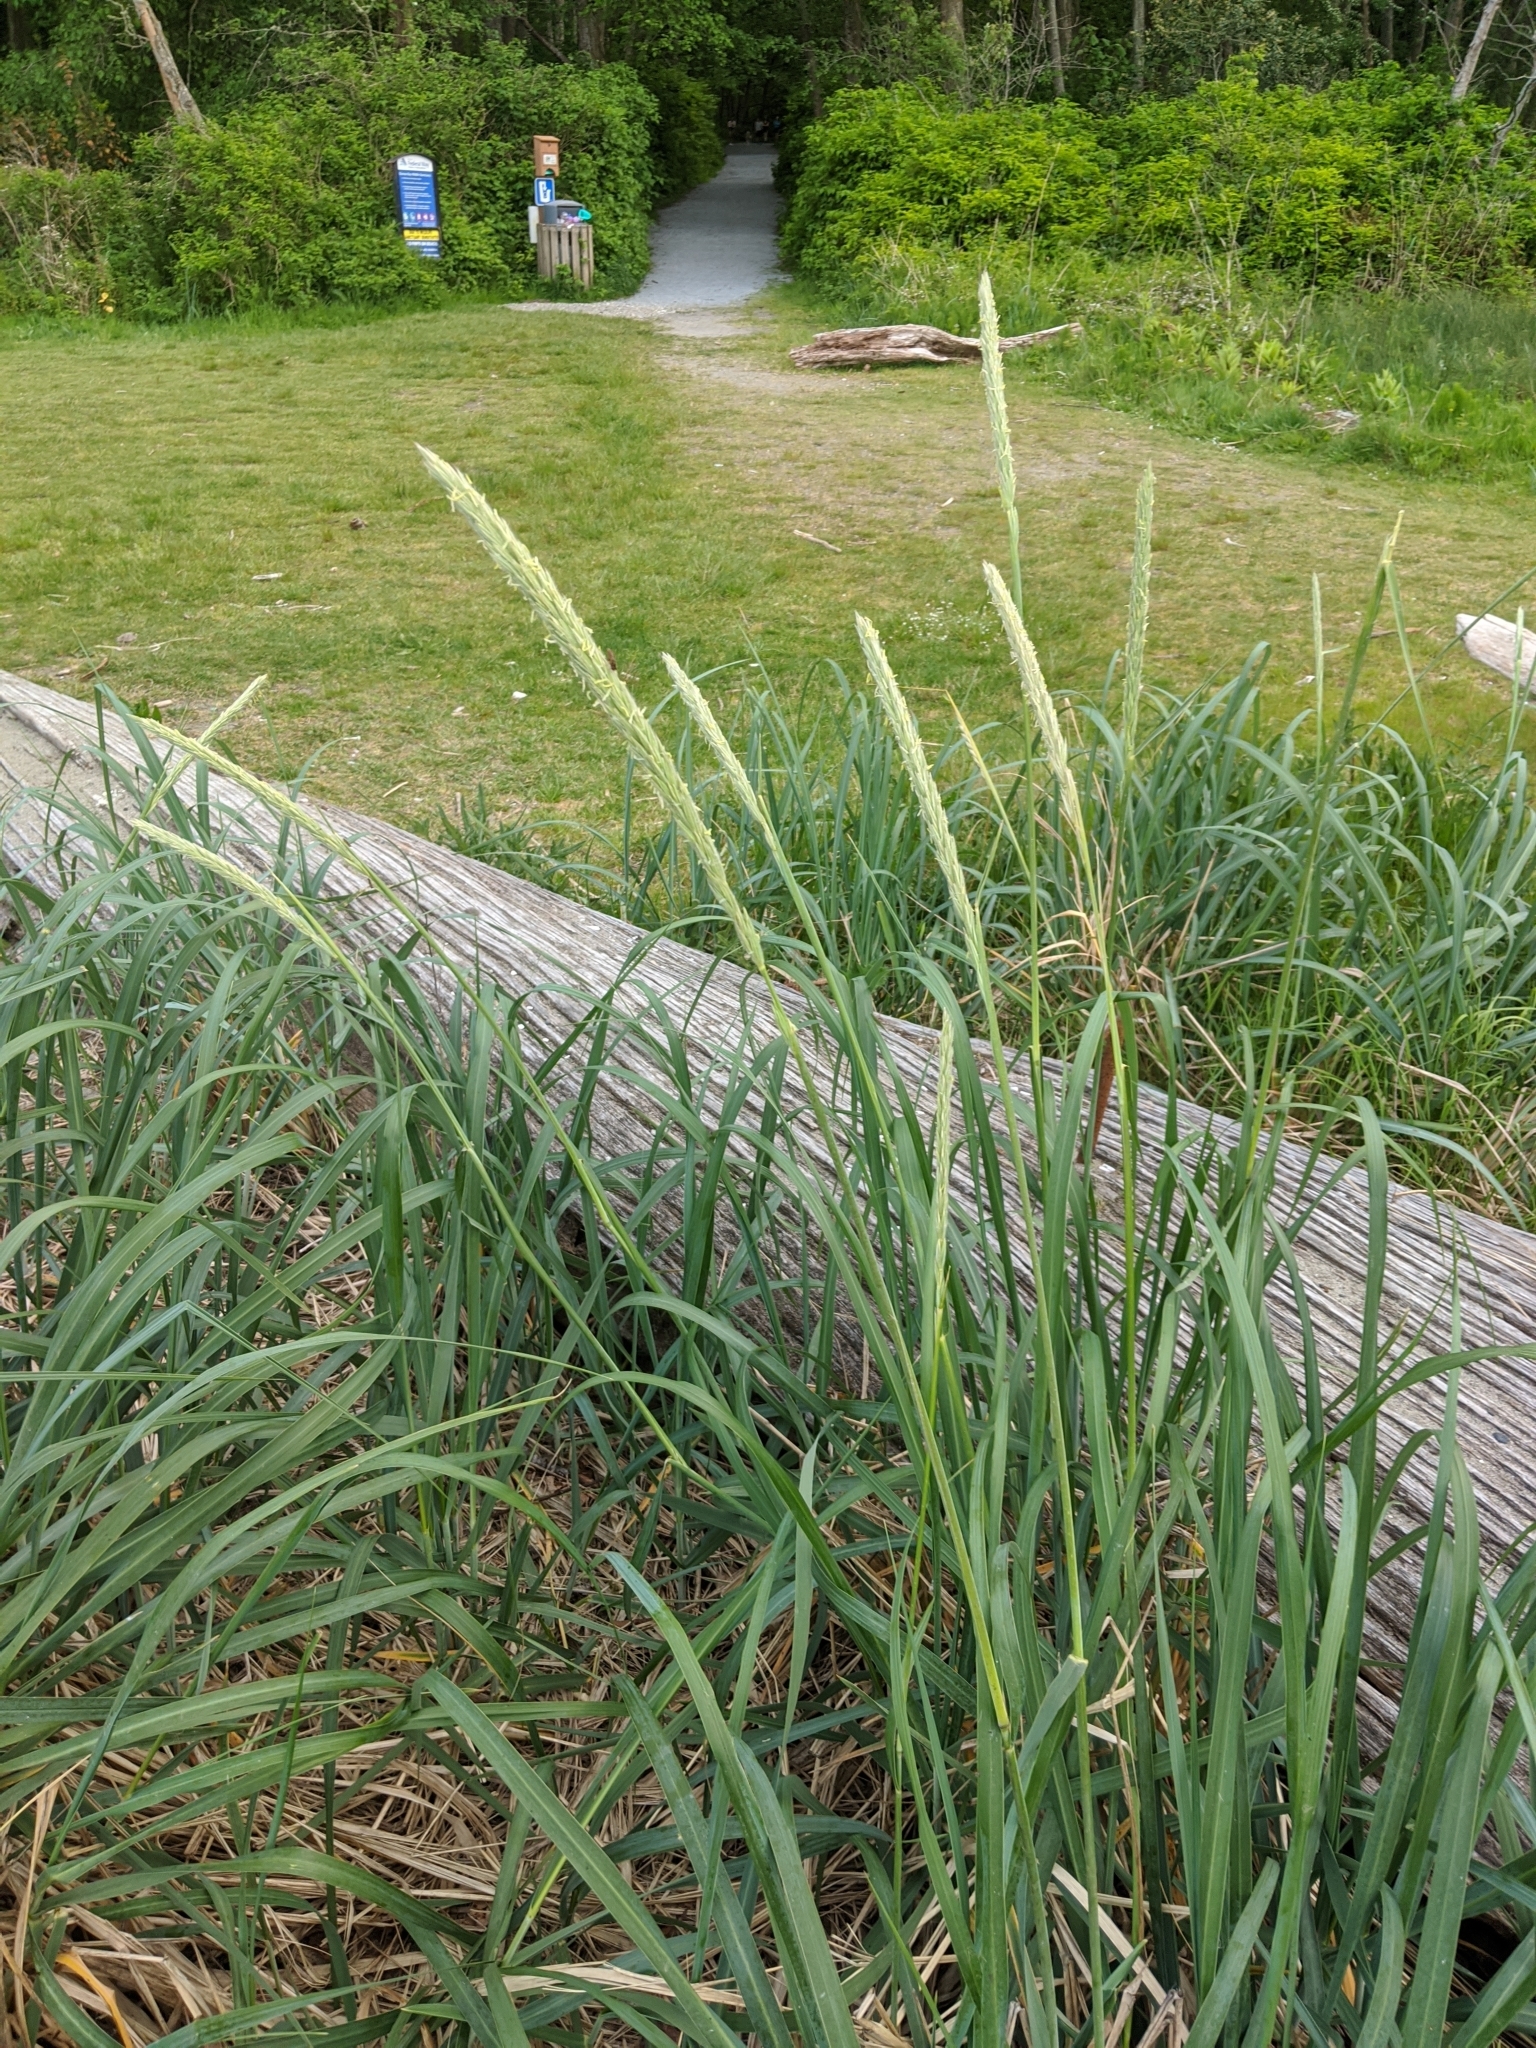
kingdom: Plantae
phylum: Tracheophyta
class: Liliopsida
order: Poales
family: Poaceae
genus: Leymus
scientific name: Leymus mollis
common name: American dune grass
